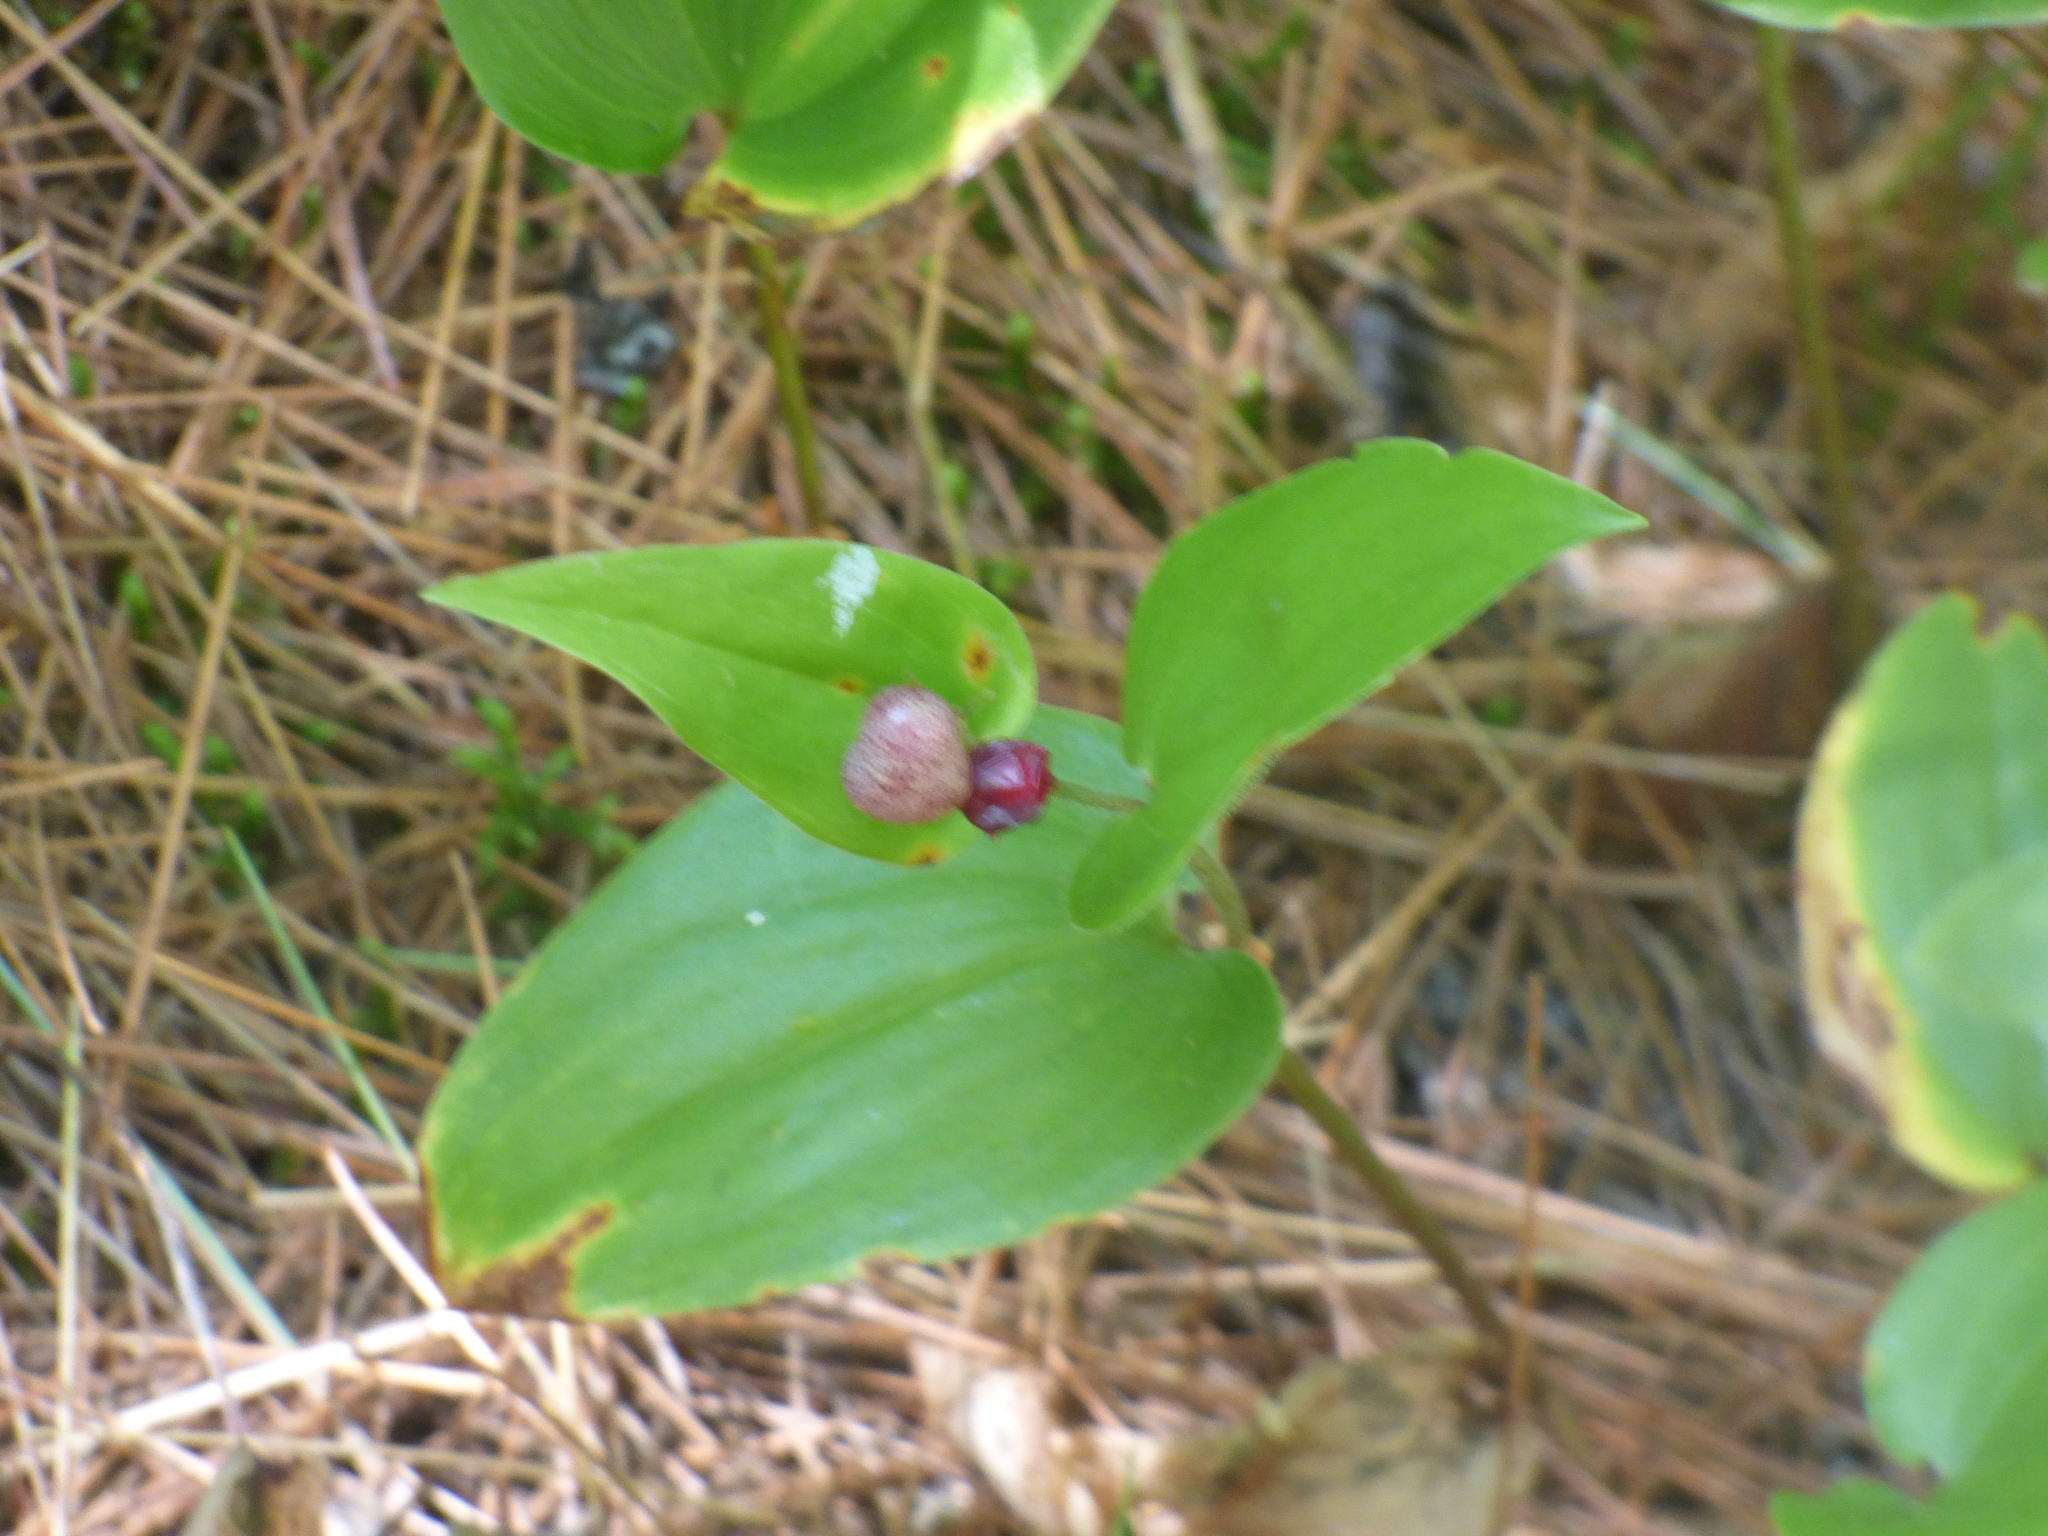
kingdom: Plantae
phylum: Tracheophyta
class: Liliopsida
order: Asparagales
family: Asparagaceae
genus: Maianthemum
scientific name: Maianthemum canadense
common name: False lily-of-the-valley
